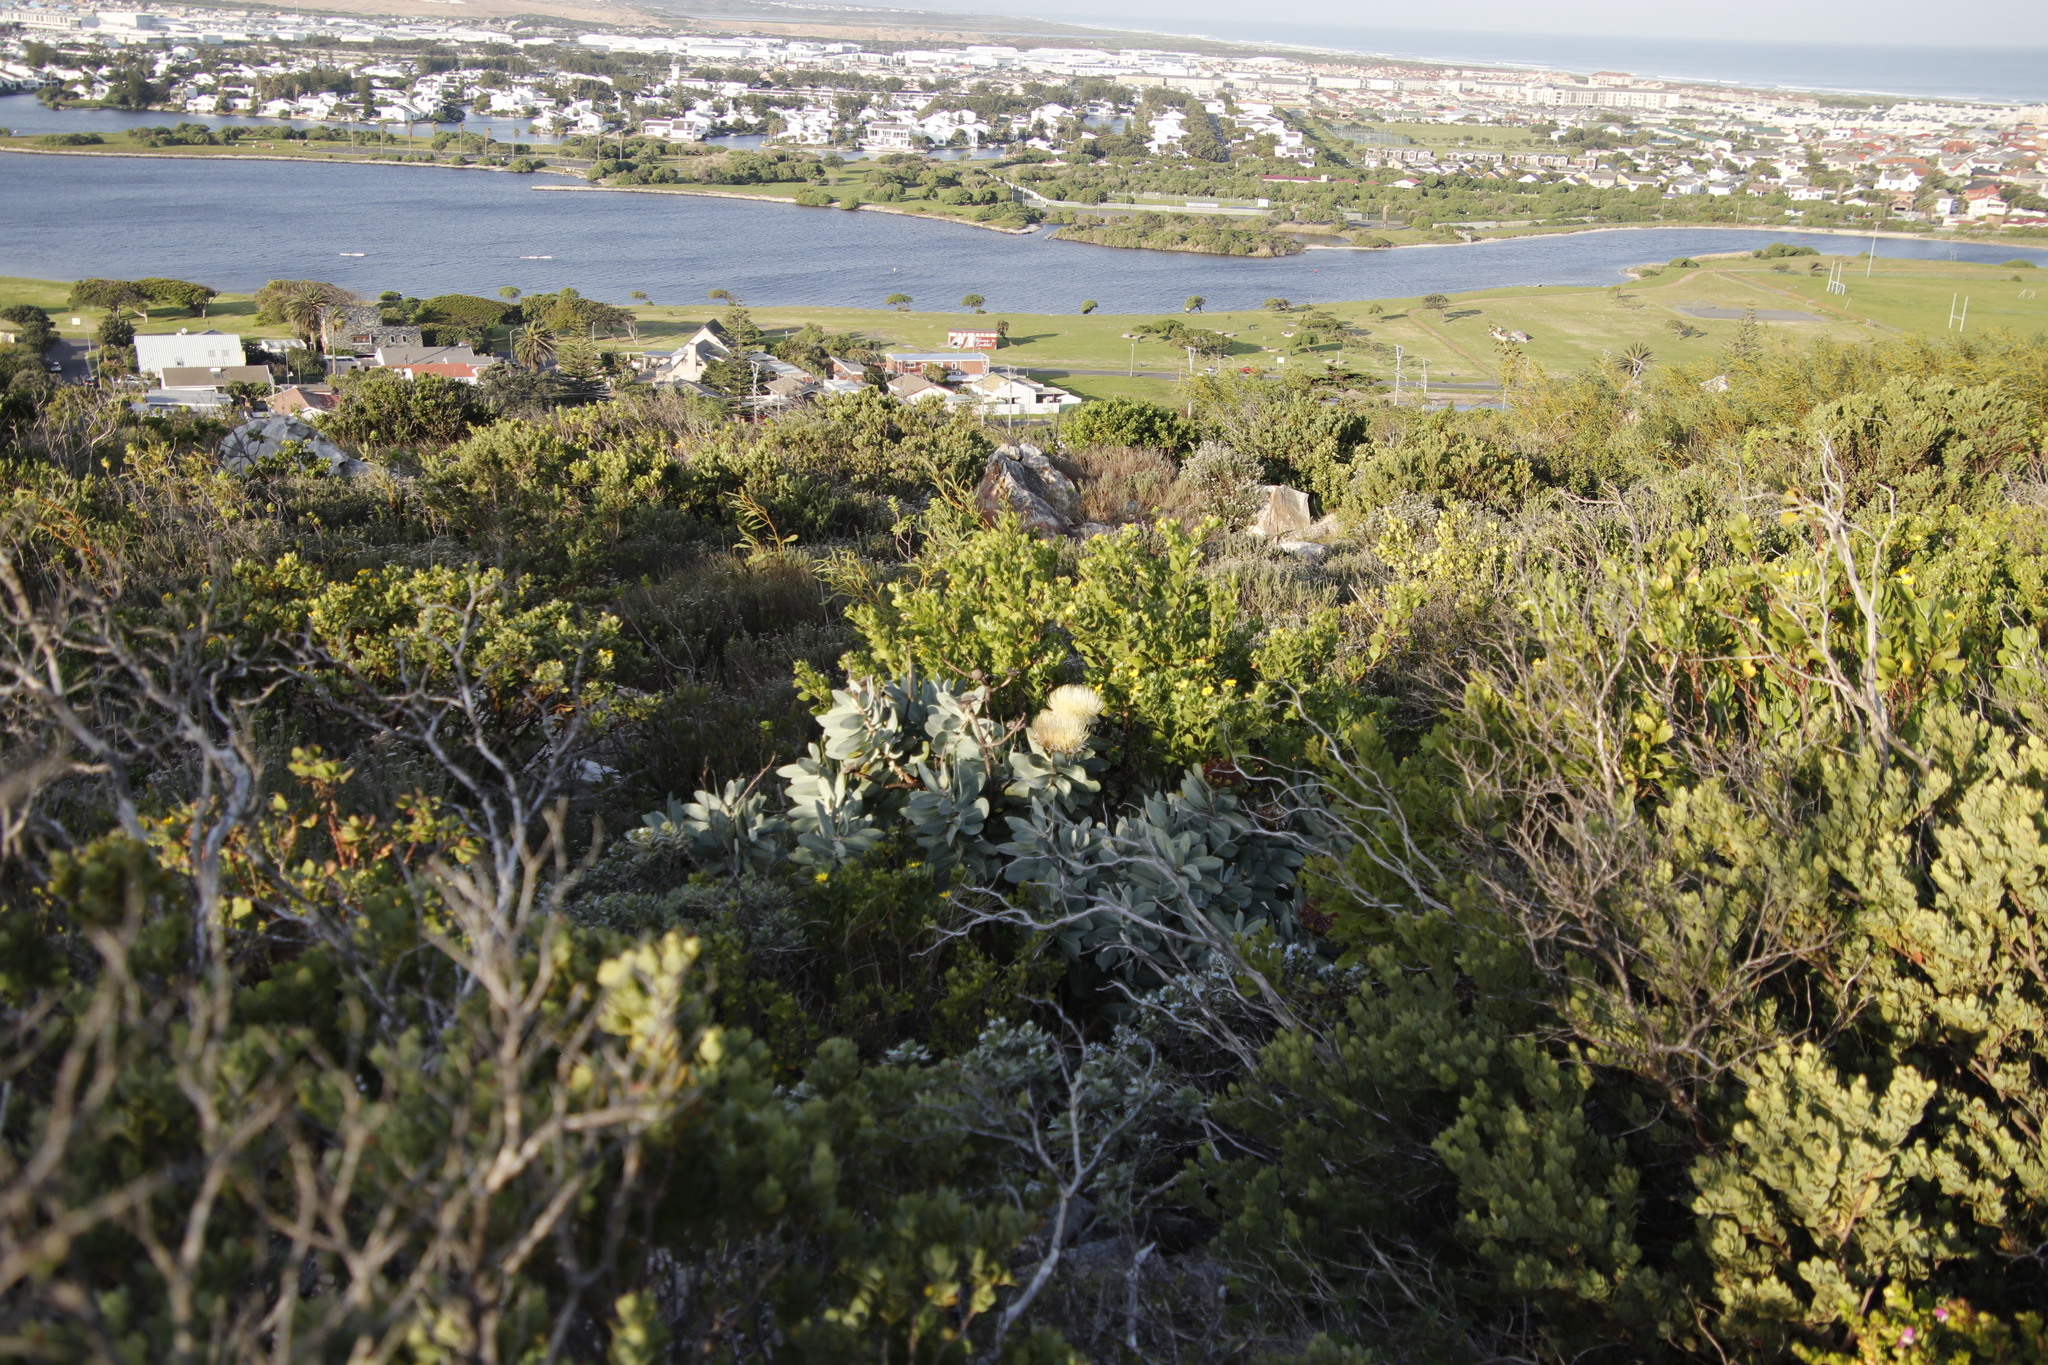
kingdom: Plantae
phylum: Tracheophyta
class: Magnoliopsida
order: Proteales
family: Proteaceae
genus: Protea
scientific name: Protea nitida
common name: Tree protea
